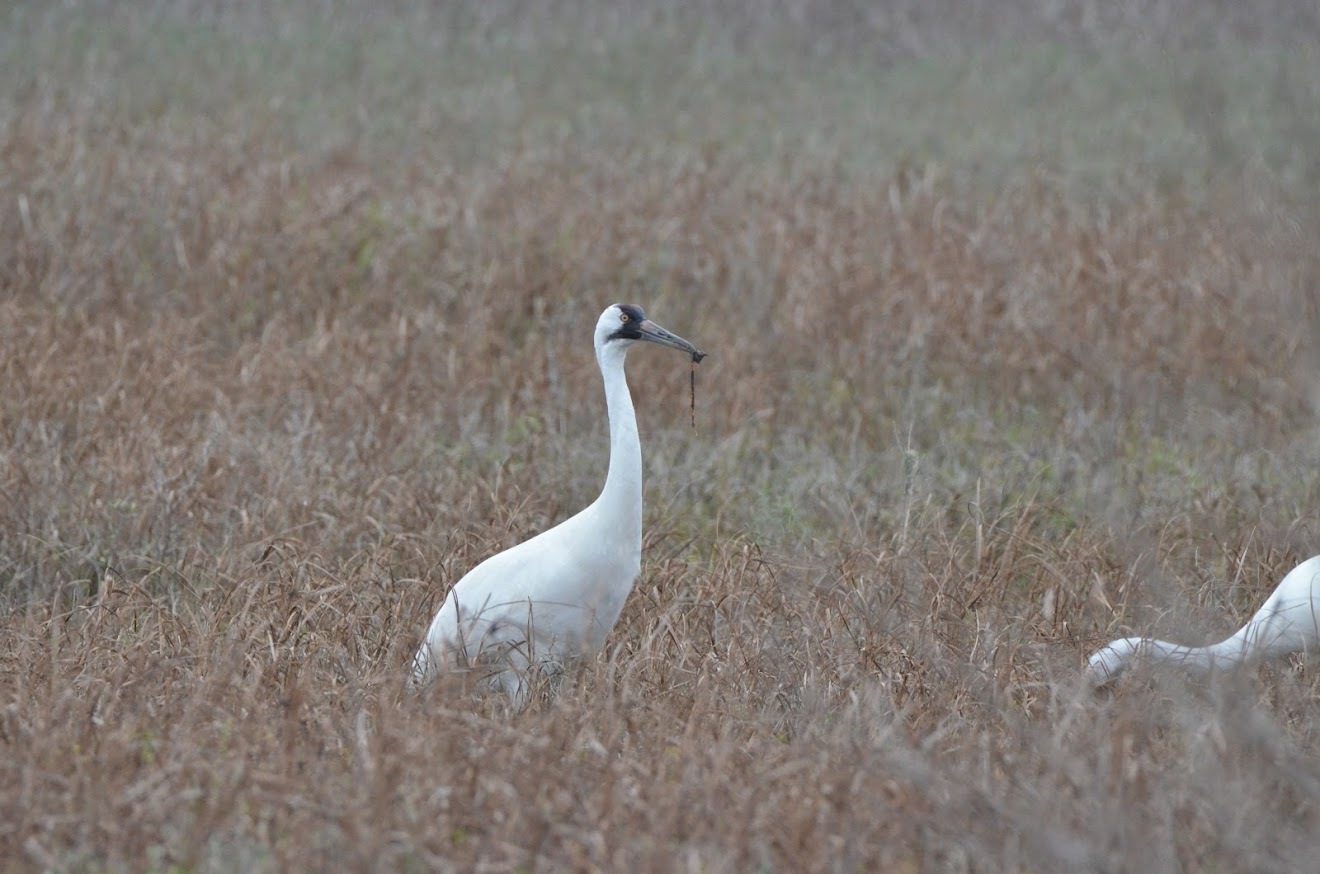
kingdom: Animalia
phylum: Chordata
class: Aves
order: Gruiformes
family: Gruidae
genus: Grus
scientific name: Grus americana
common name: Whooping crane
